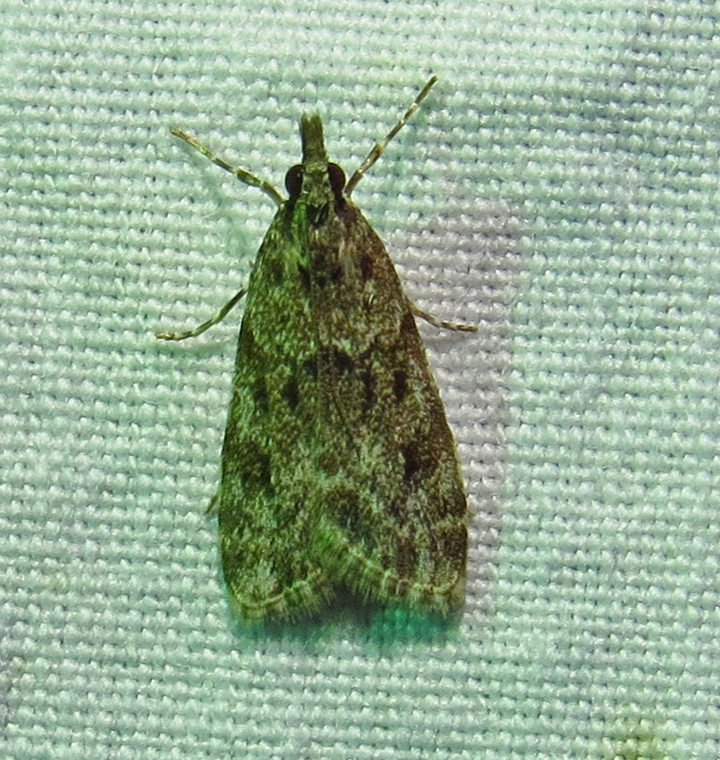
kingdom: Animalia
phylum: Arthropoda
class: Insecta
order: Lepidoptera
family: Crambidae
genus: Eudonia
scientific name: Eudonia heterosalis
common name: Mcdunnough's eudonia
